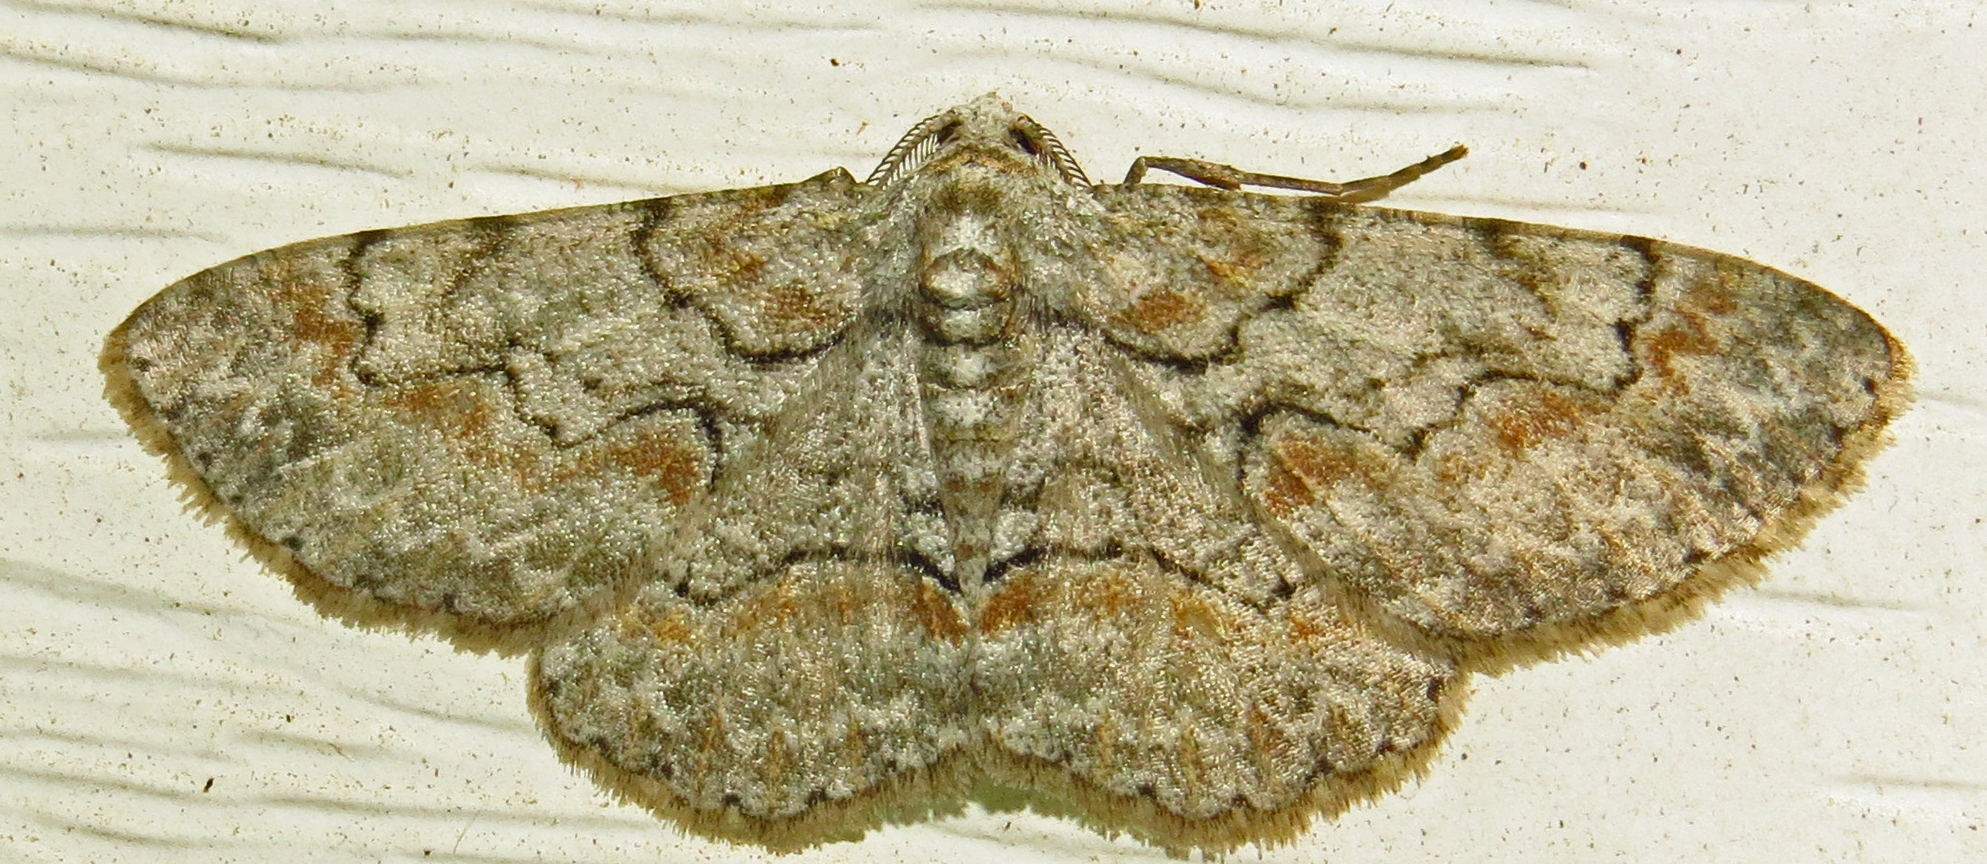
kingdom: Animalia
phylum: Arthropoda
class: Insecta
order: Lepidoptera
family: Geometridae
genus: Iridopsis
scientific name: Iridopsis defectaria
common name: Brown-shaded gray
